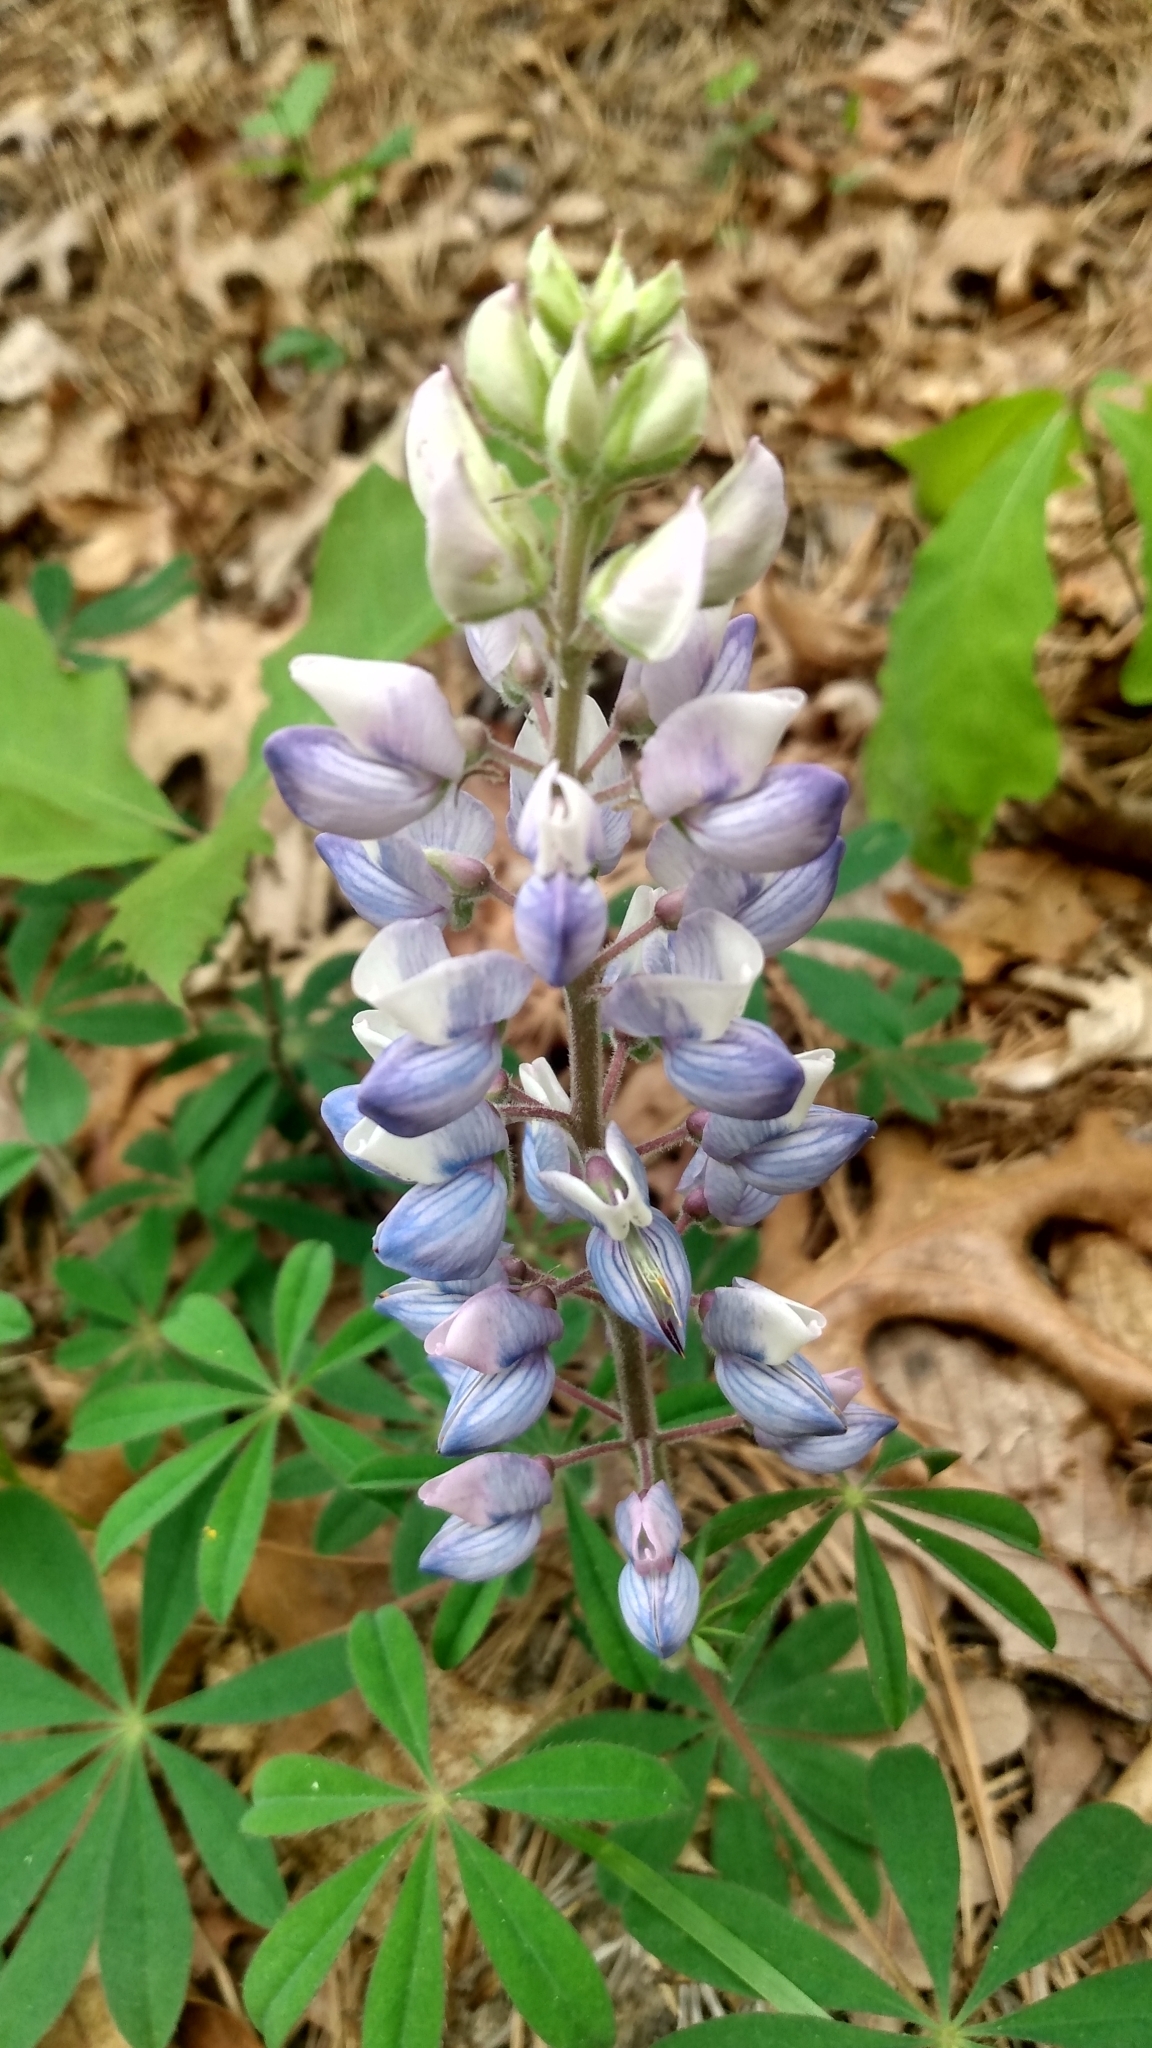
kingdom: Plantae
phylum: Tracheophyta
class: Magnoliopsida
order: Fabales
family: Fabaceae
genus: Lupinus
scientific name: Lupinus perennis
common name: Sundial lupine
